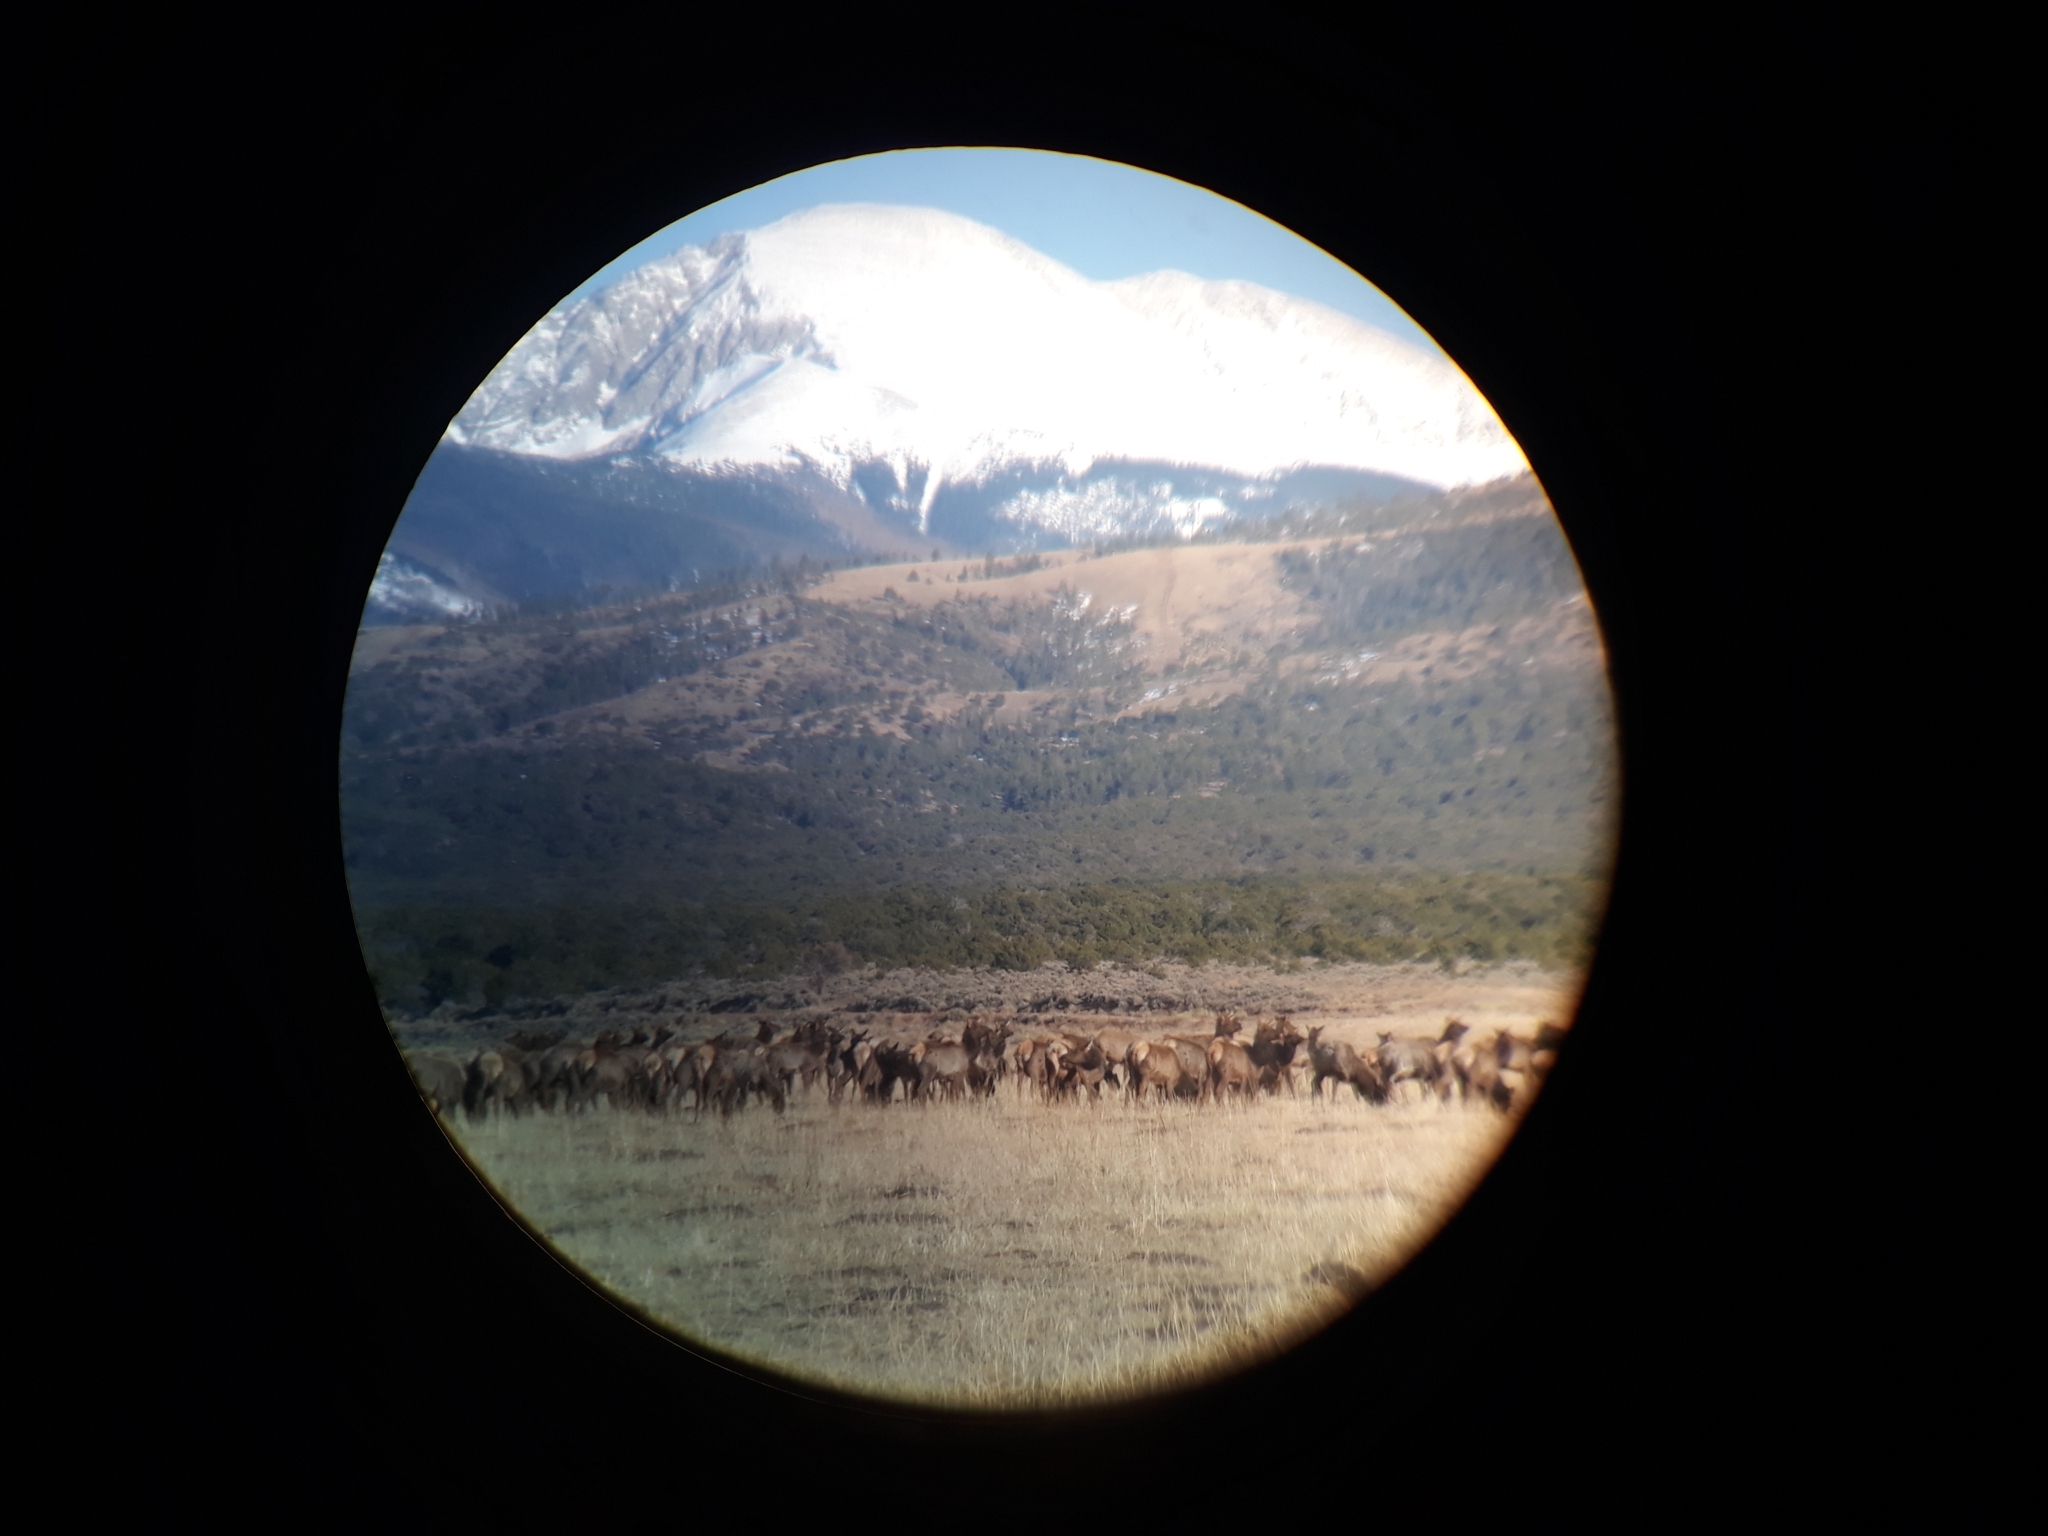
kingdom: Animalia
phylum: Chordata
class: Mammalia
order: Artiodactyla
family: Cervidae
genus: Cervus
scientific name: Cervus elaphus
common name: Red deer
